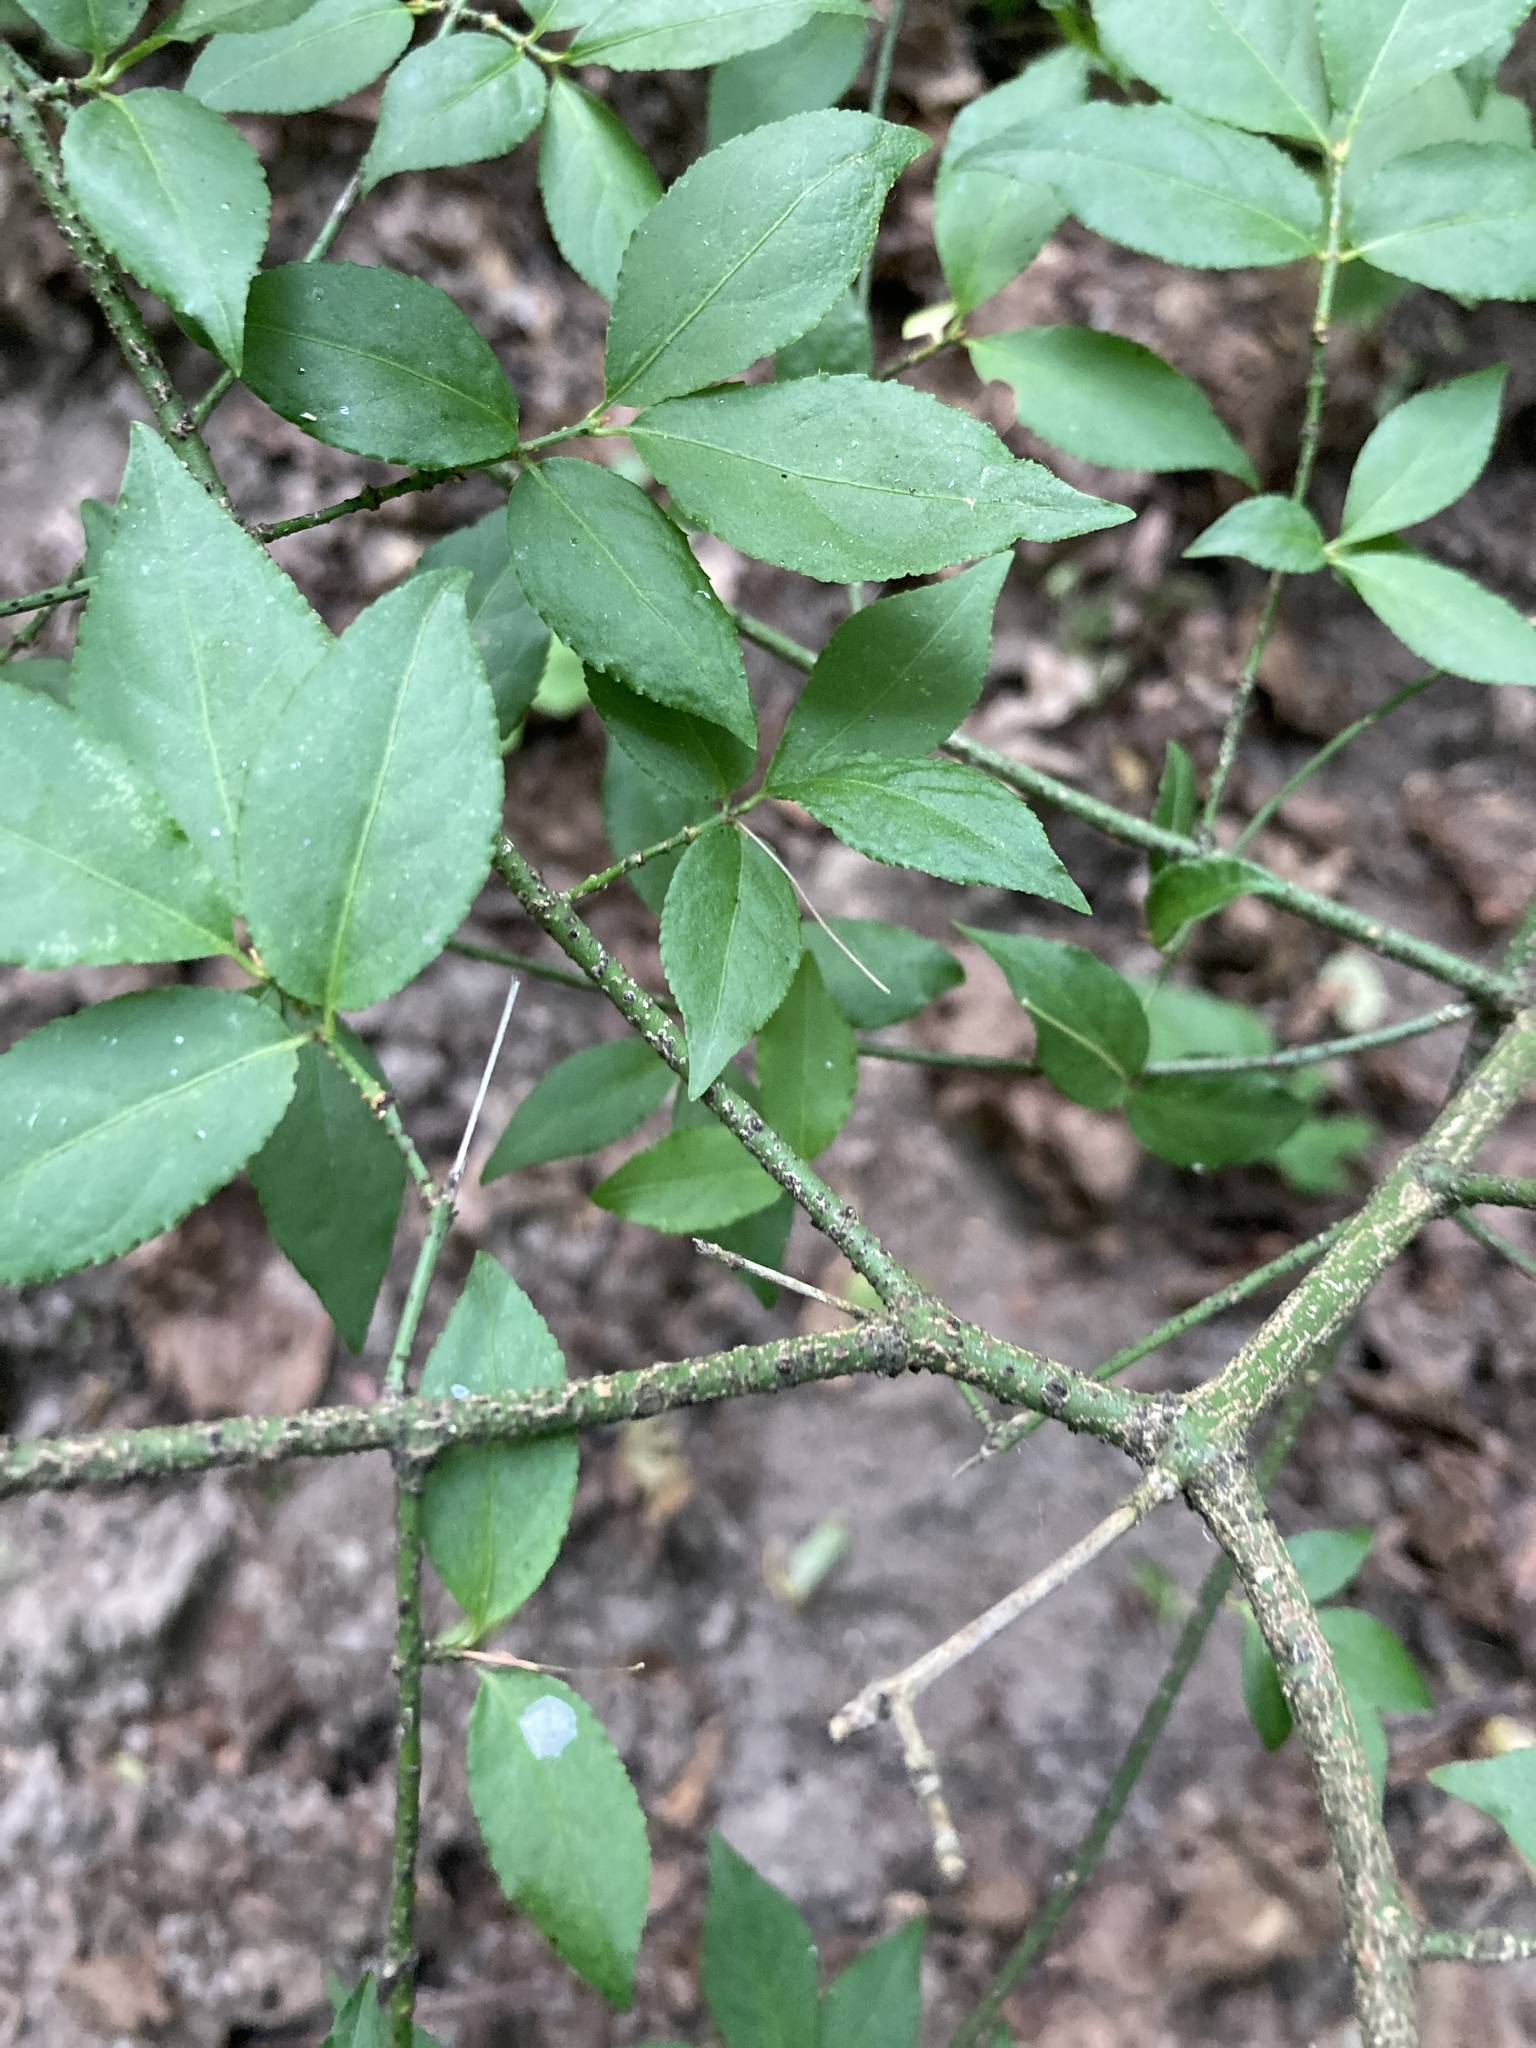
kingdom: Plantae
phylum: Tracheophyta
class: Magnoliopsida
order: Celastrales
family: Celastraceae
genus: Euonymus
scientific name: Euonymus verrucosus
